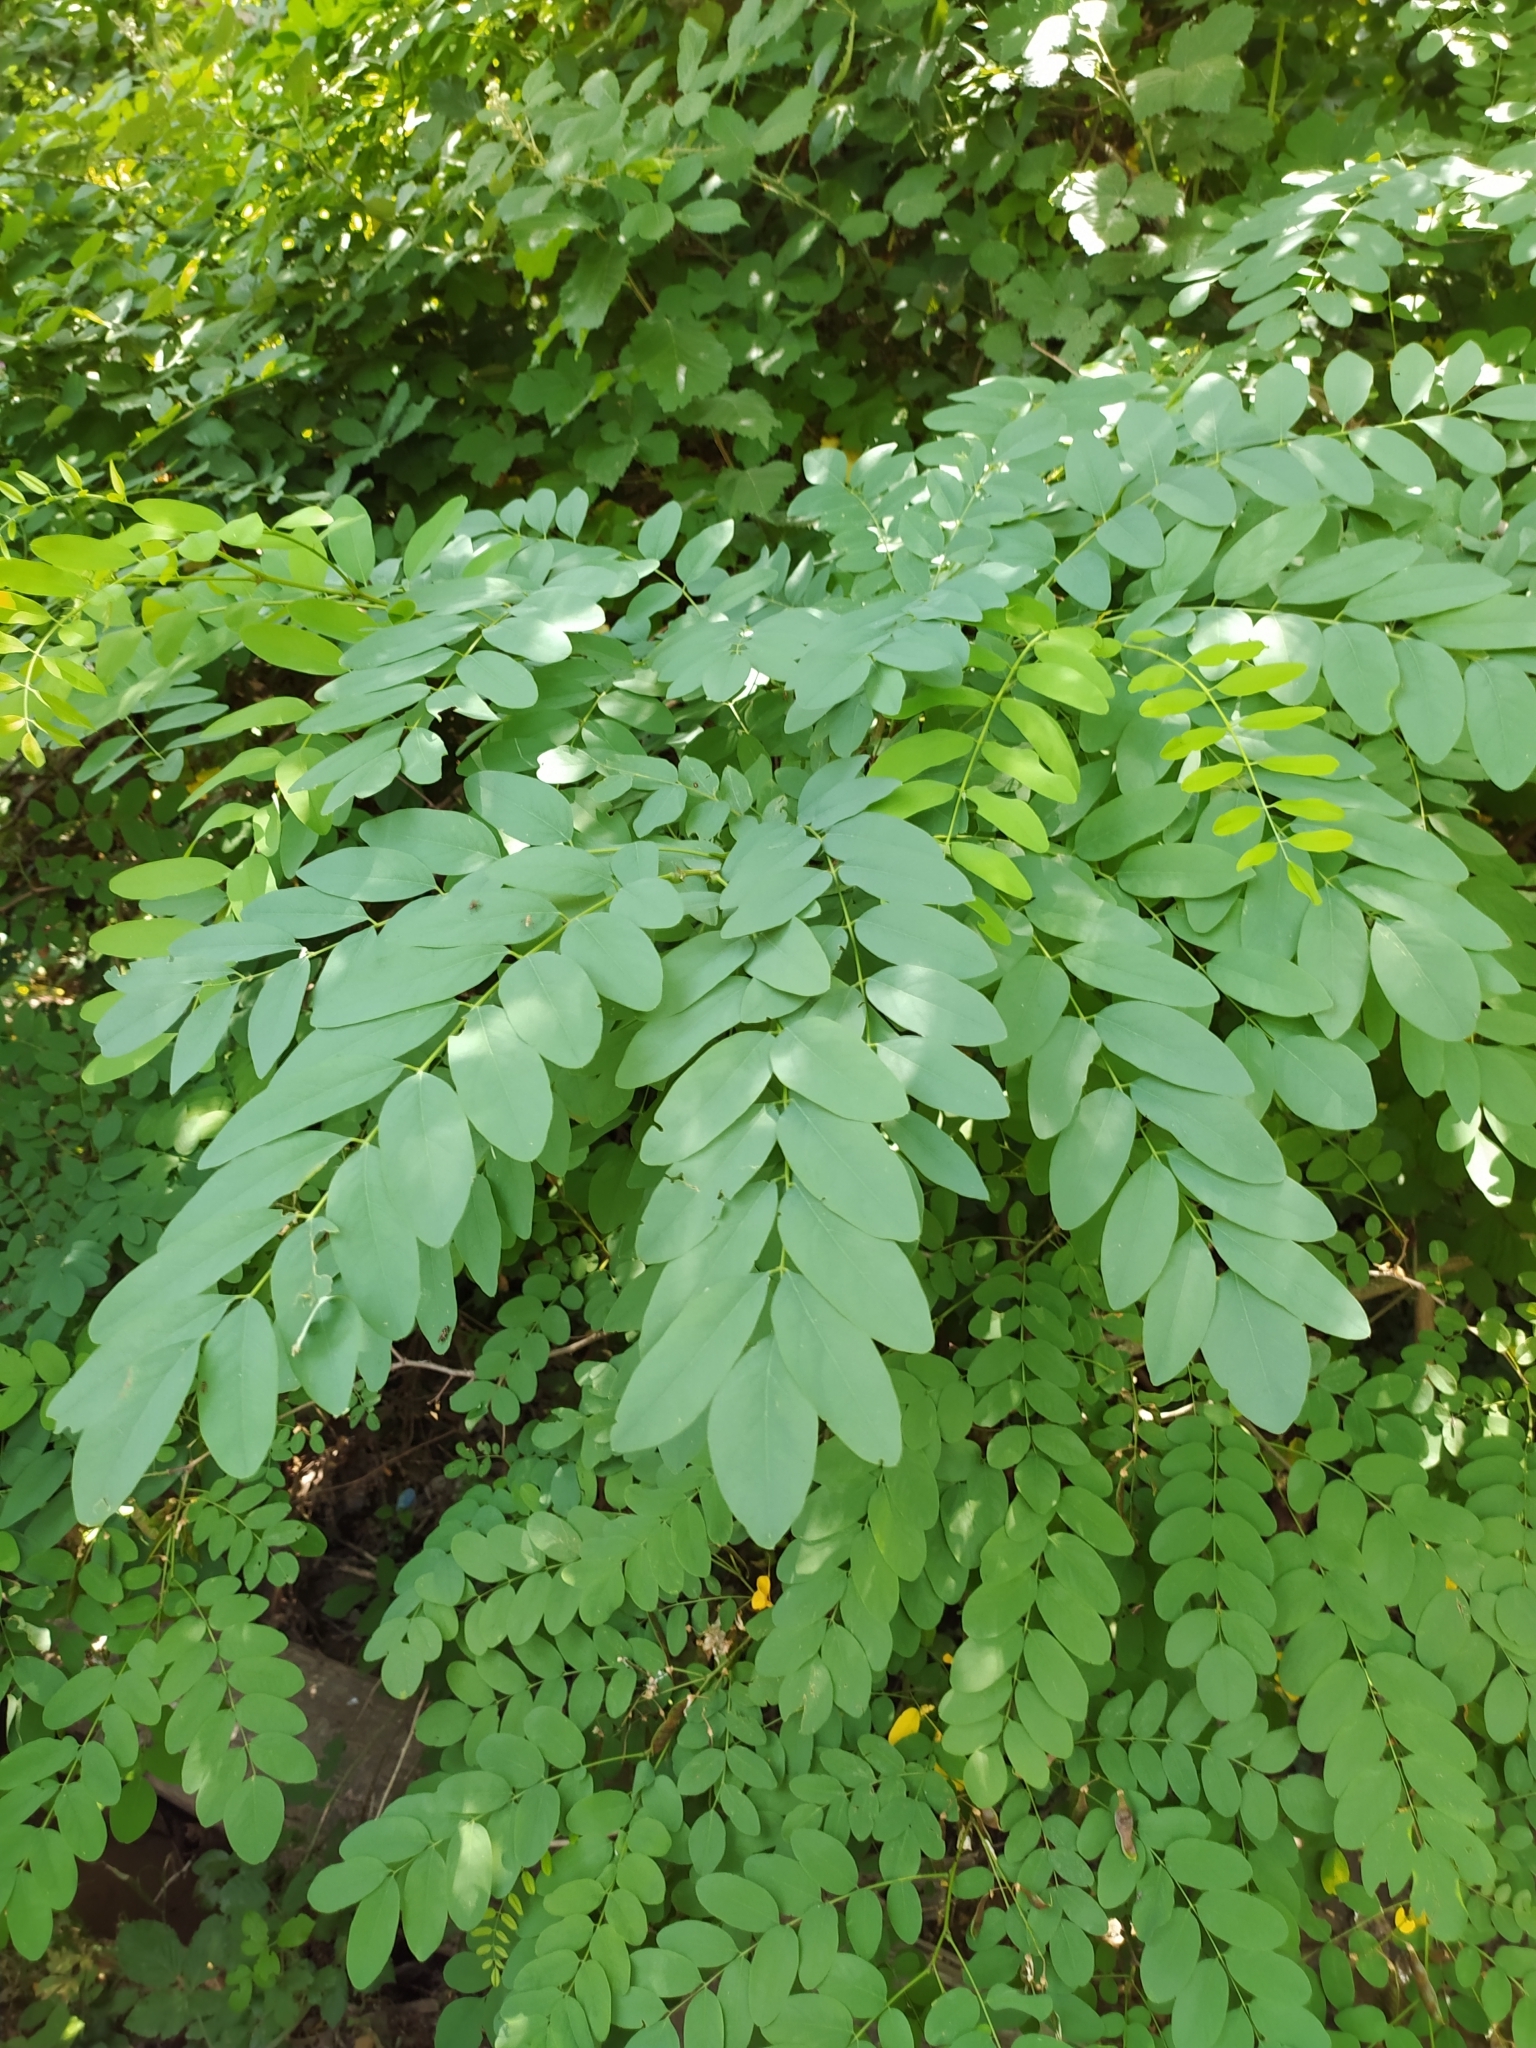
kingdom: Plantae
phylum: Tracheophyta
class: Magnoliopsida
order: Fabales
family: Fabaceae
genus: Robinia
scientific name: Robinia pseudoacacia
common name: Black locust
